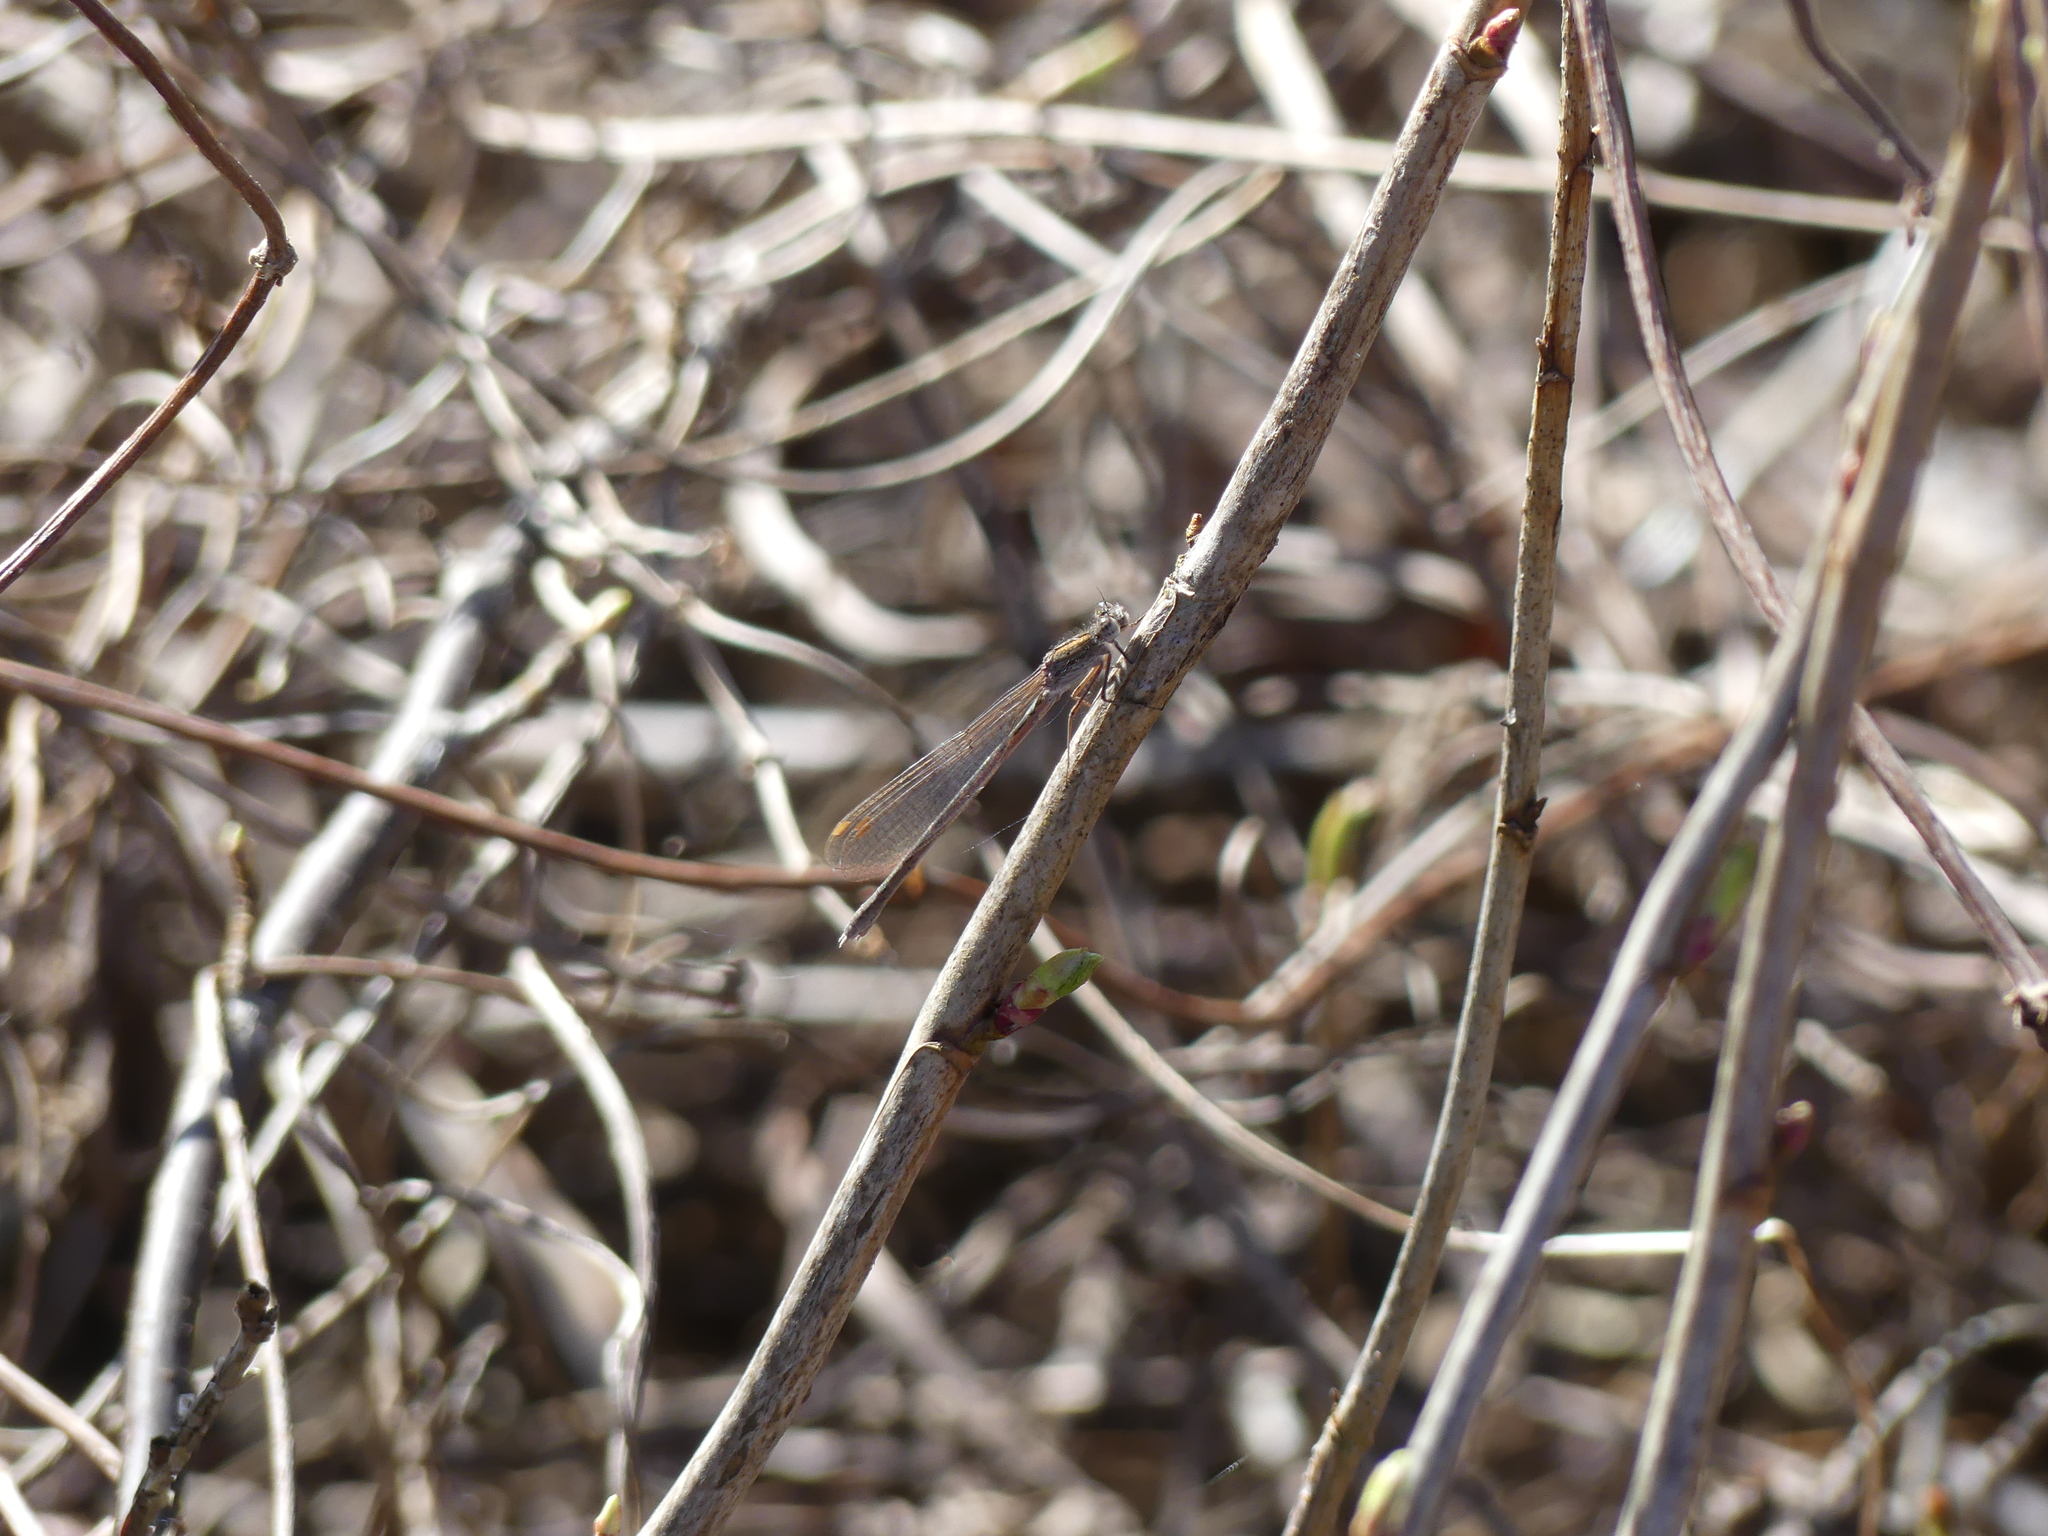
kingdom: Animalia
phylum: Arthropoda
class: Insecta
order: Odonata
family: Lestidae
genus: Sympecma
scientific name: Sympecma paedisca
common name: Siberian winter damsel
